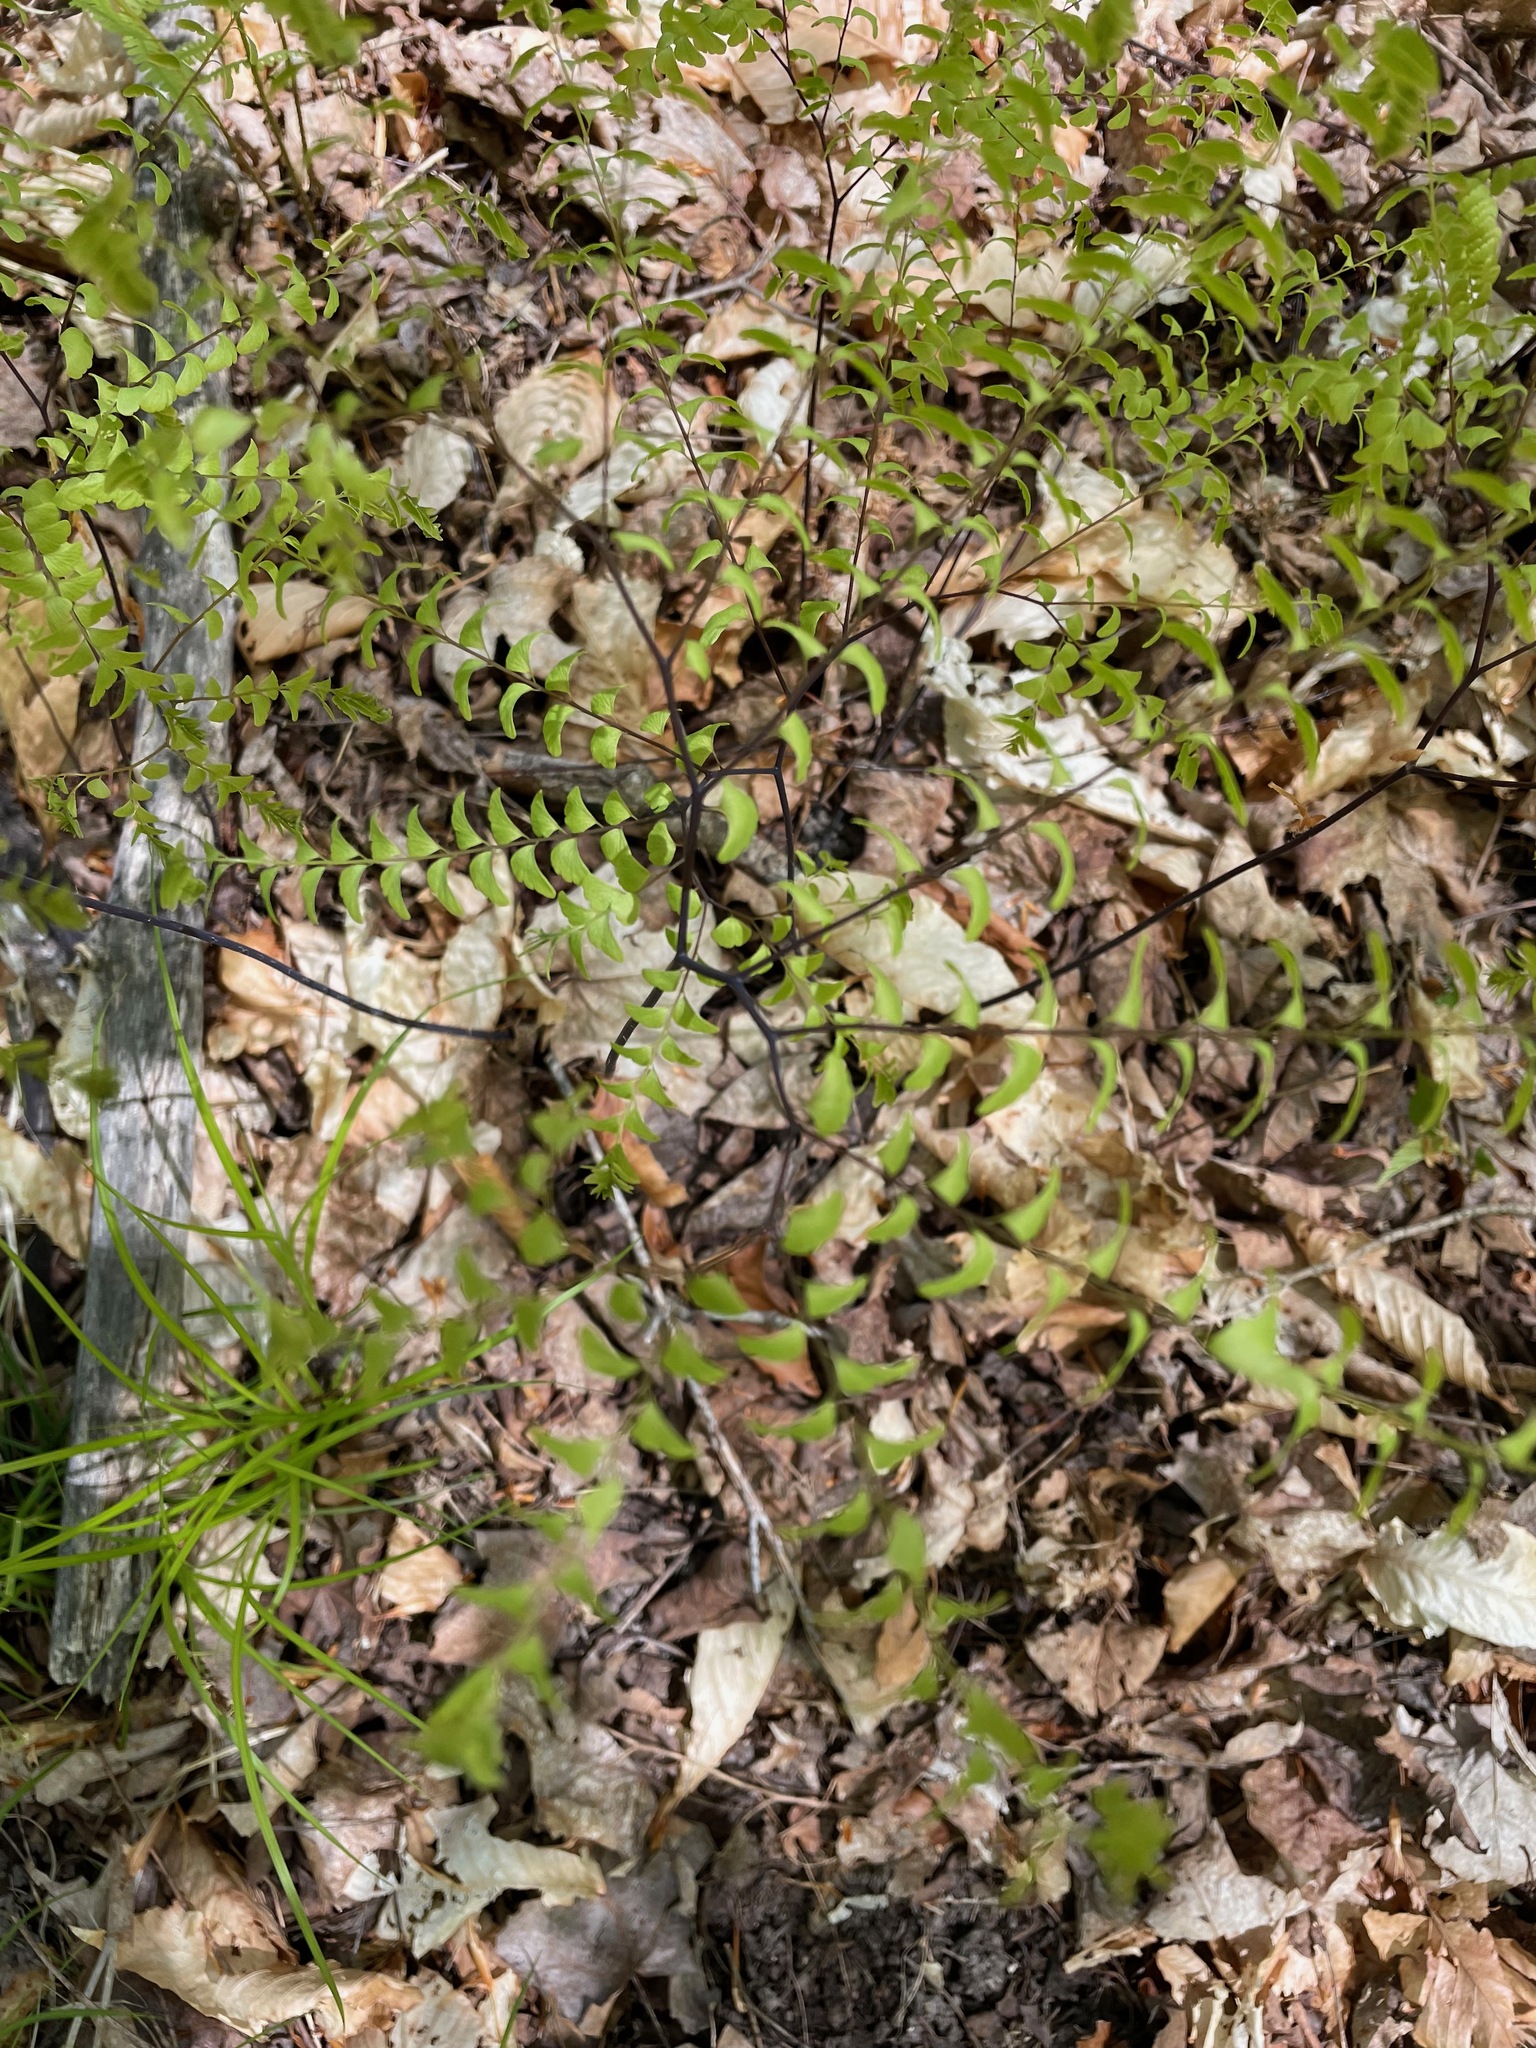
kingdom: Plantae
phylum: Tracheophyta
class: Polypodiopsida
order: Polypodiales
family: Pteridaceae
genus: Adiantum
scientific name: Adiantum pedatum
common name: Five-finger fern
